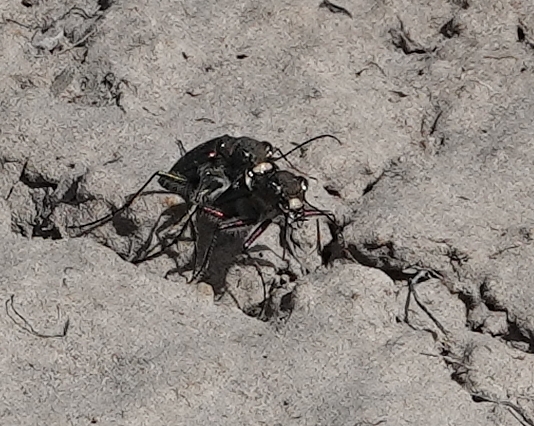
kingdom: Animalia
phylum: Arthropoda
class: Insecta
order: Coleoptera
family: Carabidae
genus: Cicindela
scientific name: Cicindela purpurea
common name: Cow path tiger beetle
